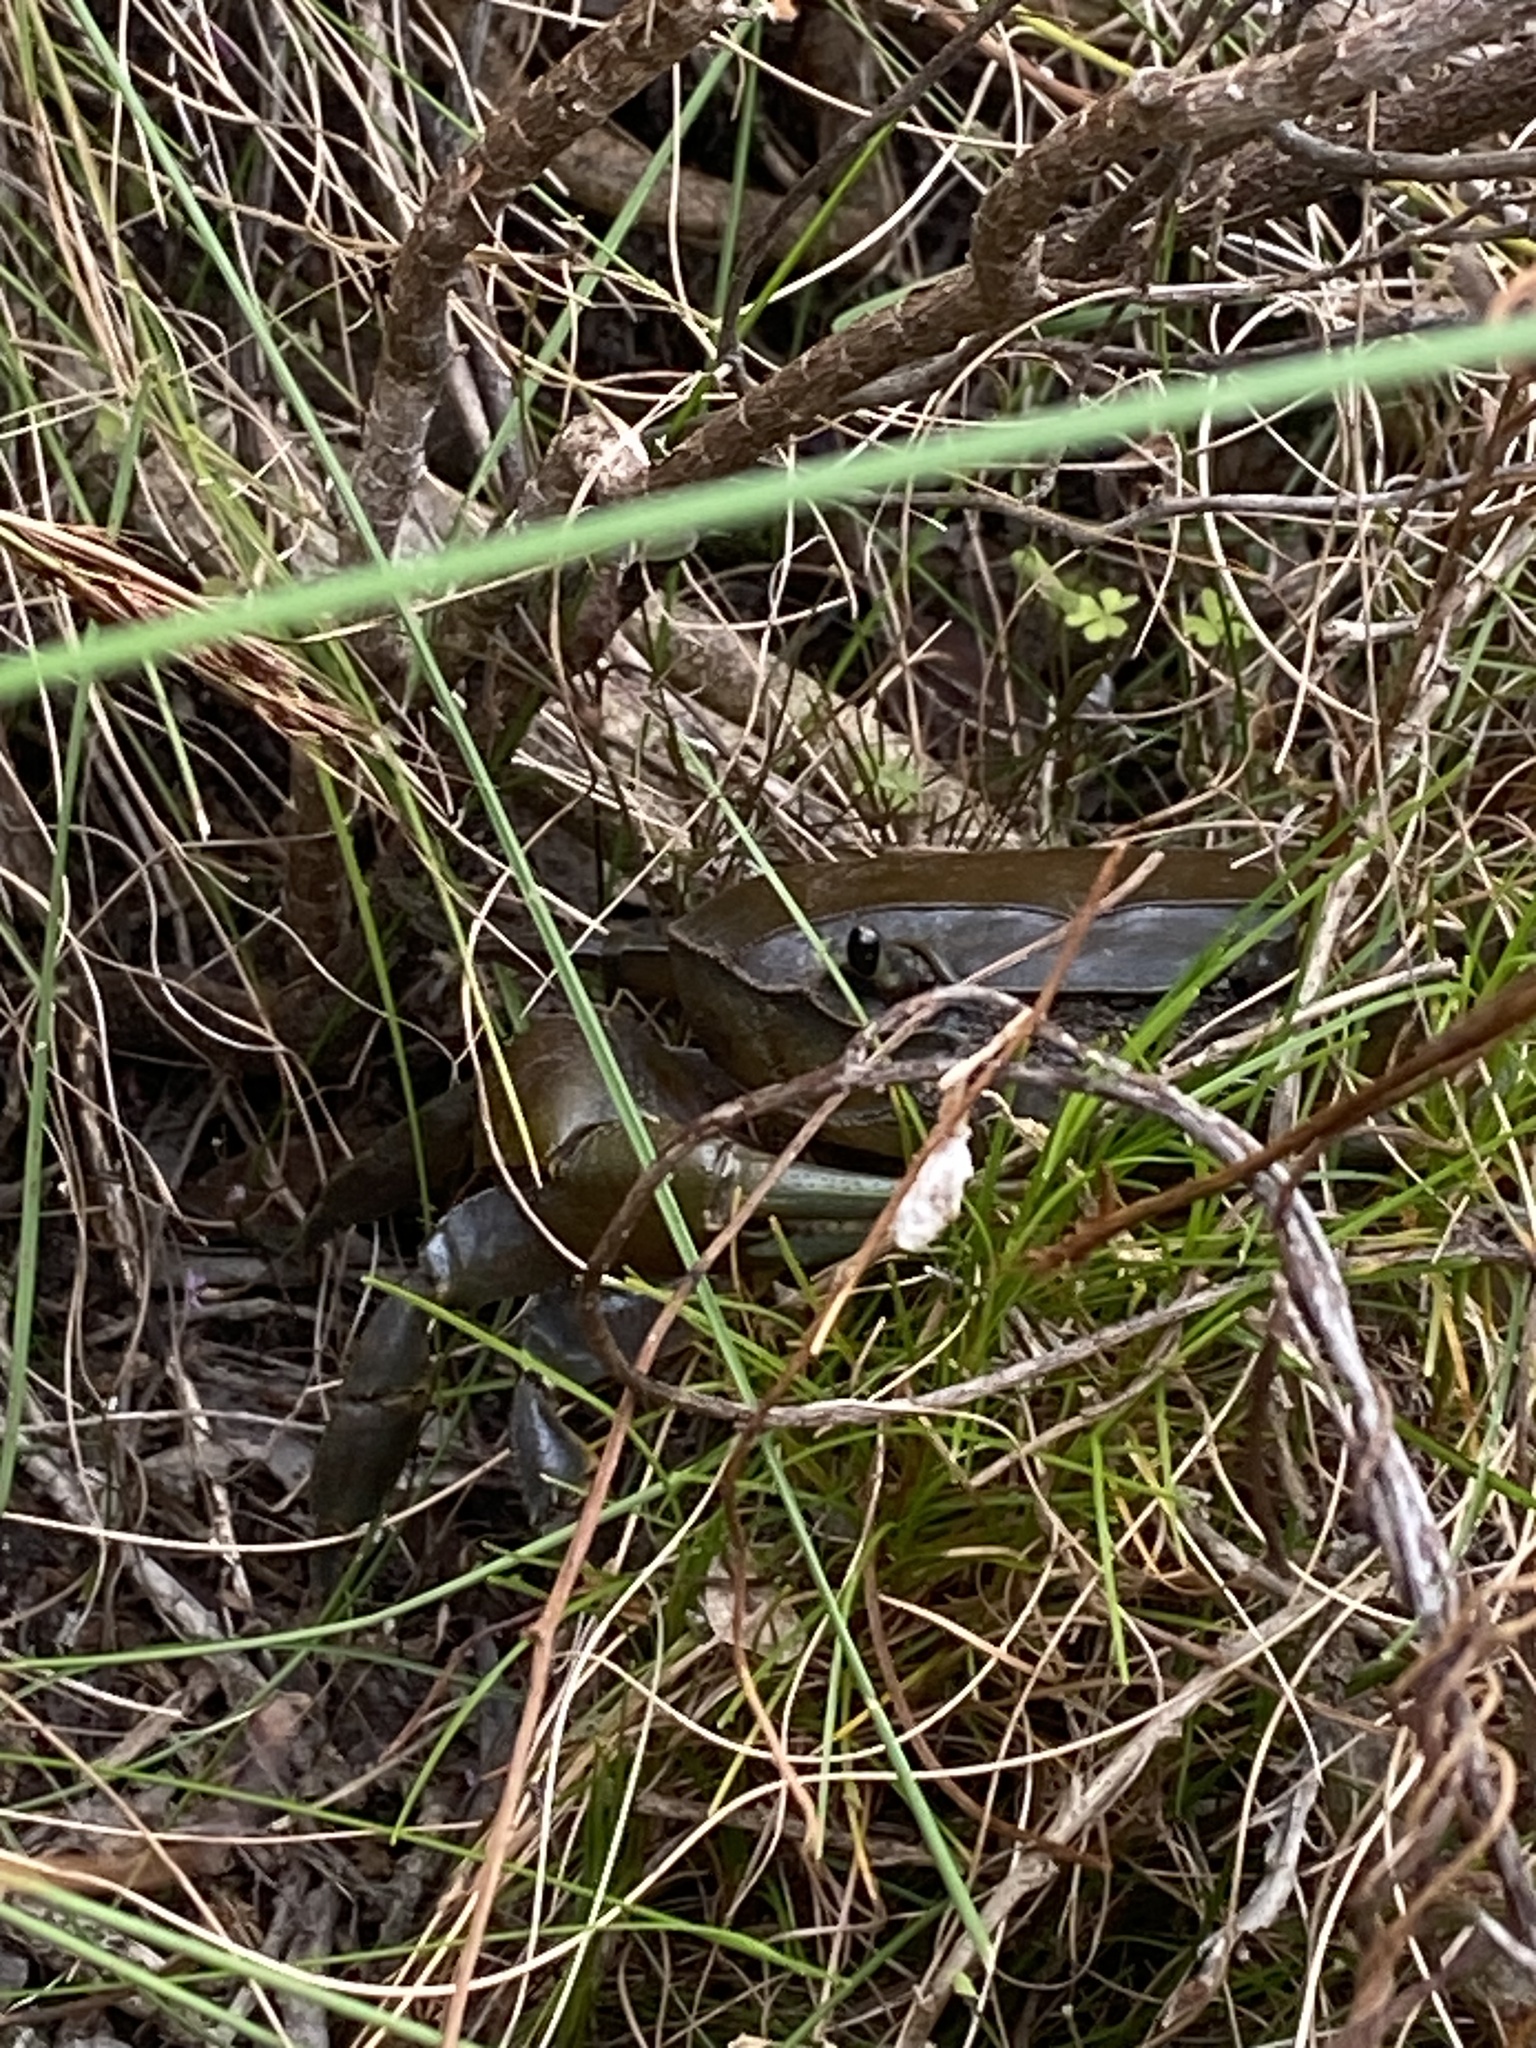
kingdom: Animalia
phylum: Arthropoda
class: Malacostraca
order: Decapoda
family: Potamonautidae
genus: Potamonautes
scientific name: Potamonautes perlatus
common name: Cape river crab
